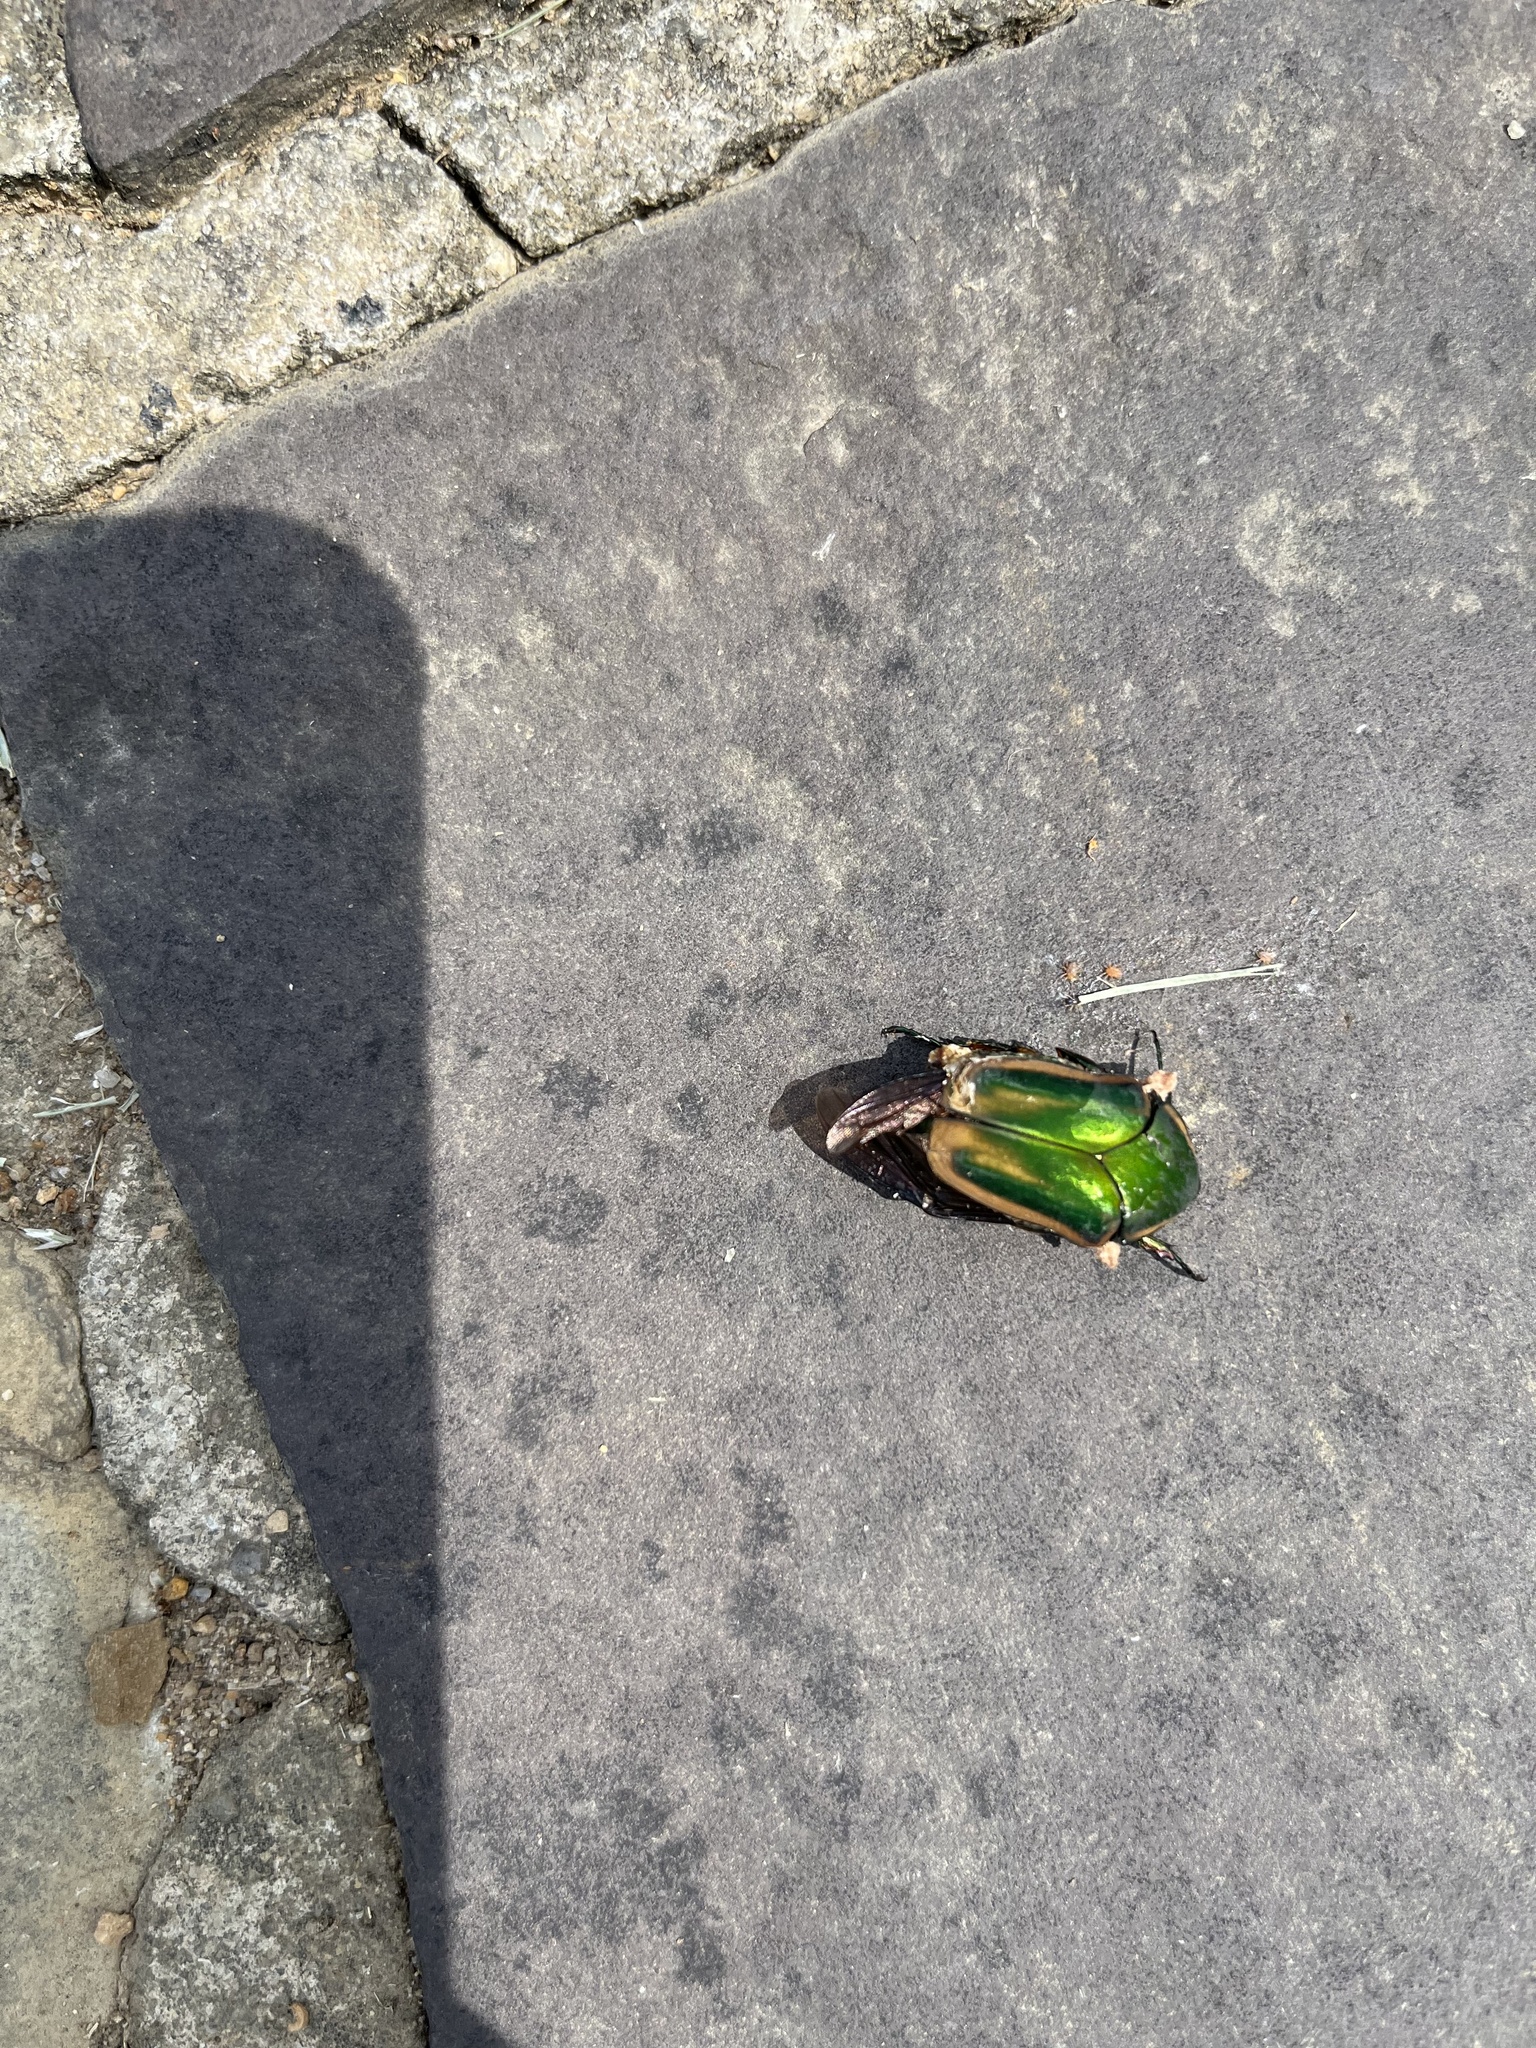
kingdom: Animalia
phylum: Arthropoda
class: Insecta
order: Coleoptera
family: Scarabaeidae
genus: Cotinis
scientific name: Cotinis nitida
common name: Common green june beetle
